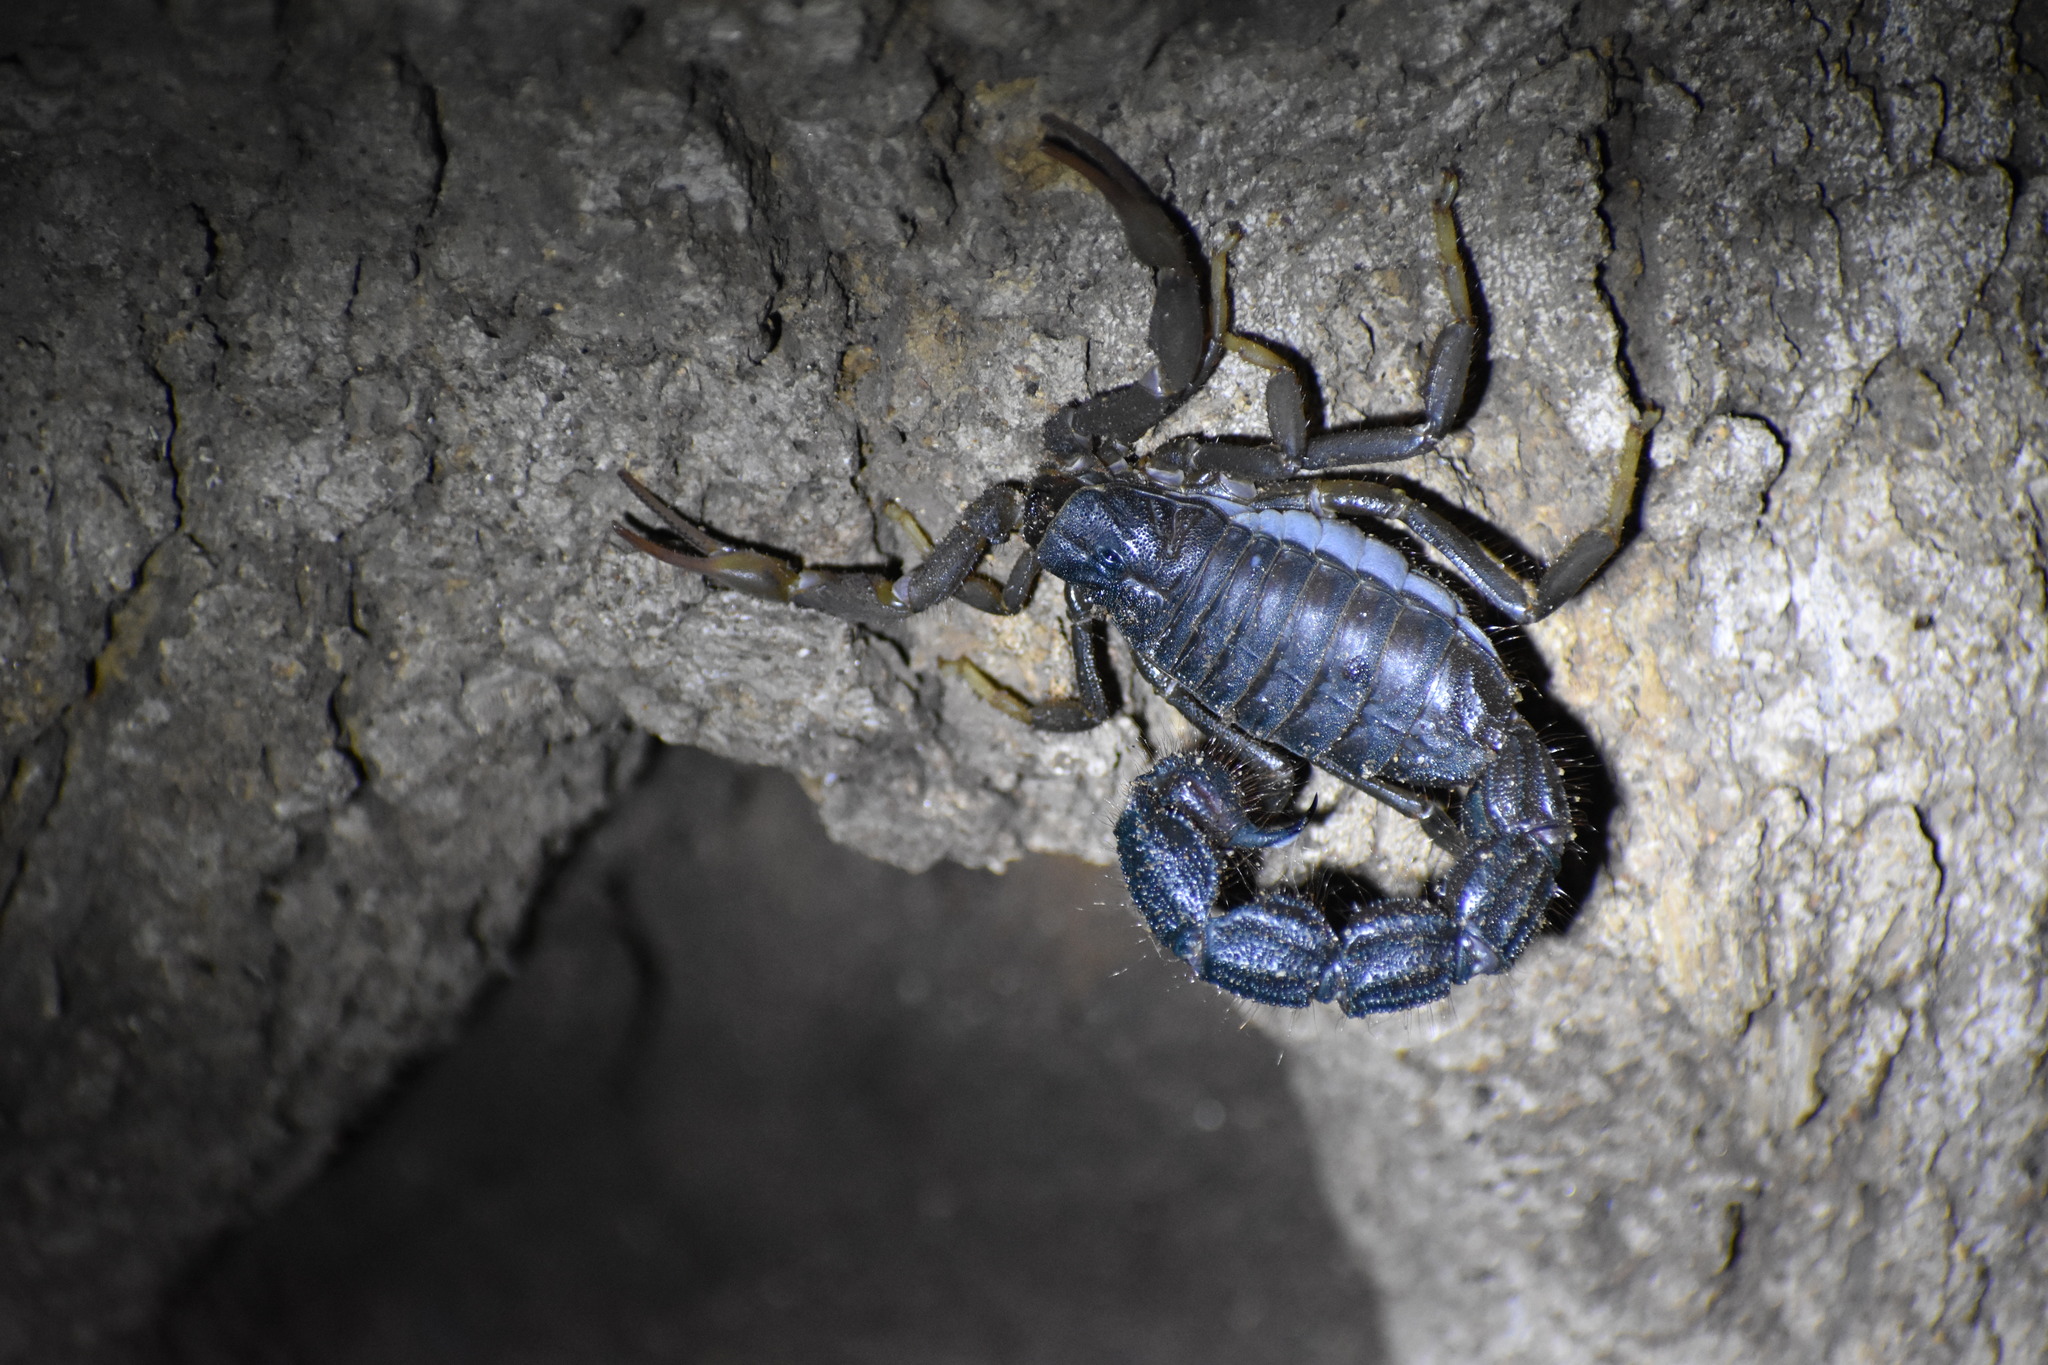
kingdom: Animalia
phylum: Arthropoda
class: Arachnida
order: Scorpiones
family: Buthidae
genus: Parabuthus
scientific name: Parabuthus transvaalicus
